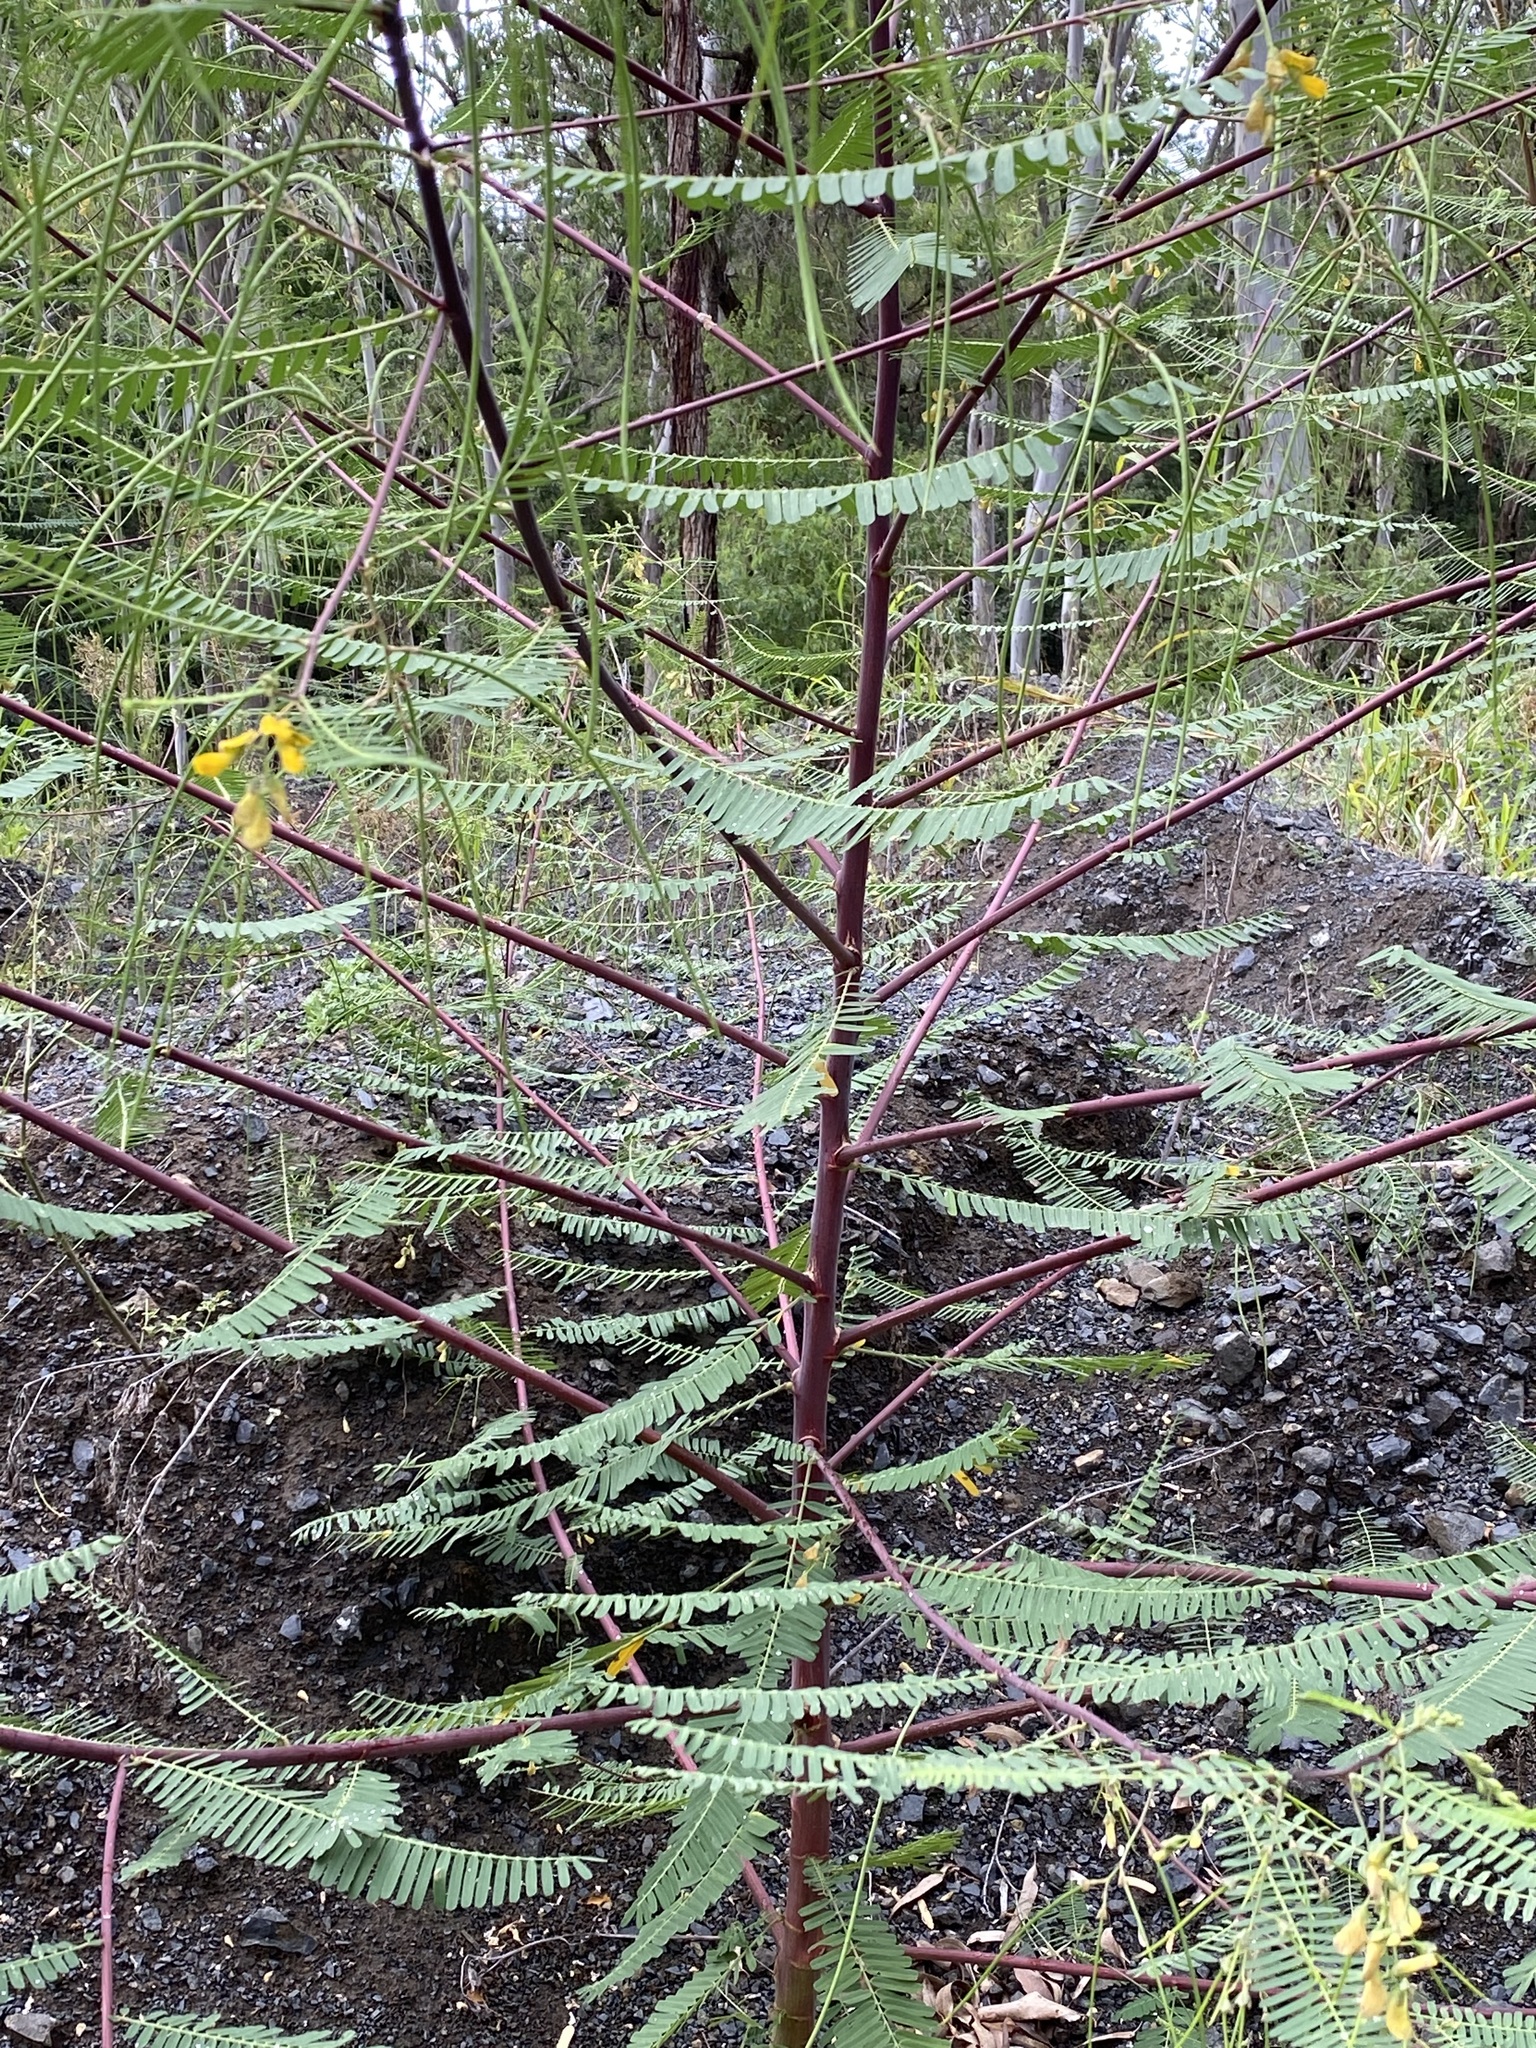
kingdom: Plantae
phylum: Tracheophyta
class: Magnoliopsida
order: Fabales
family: Fabaceae
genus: Sesbania
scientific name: Sesbania cannabina
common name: Canicha
